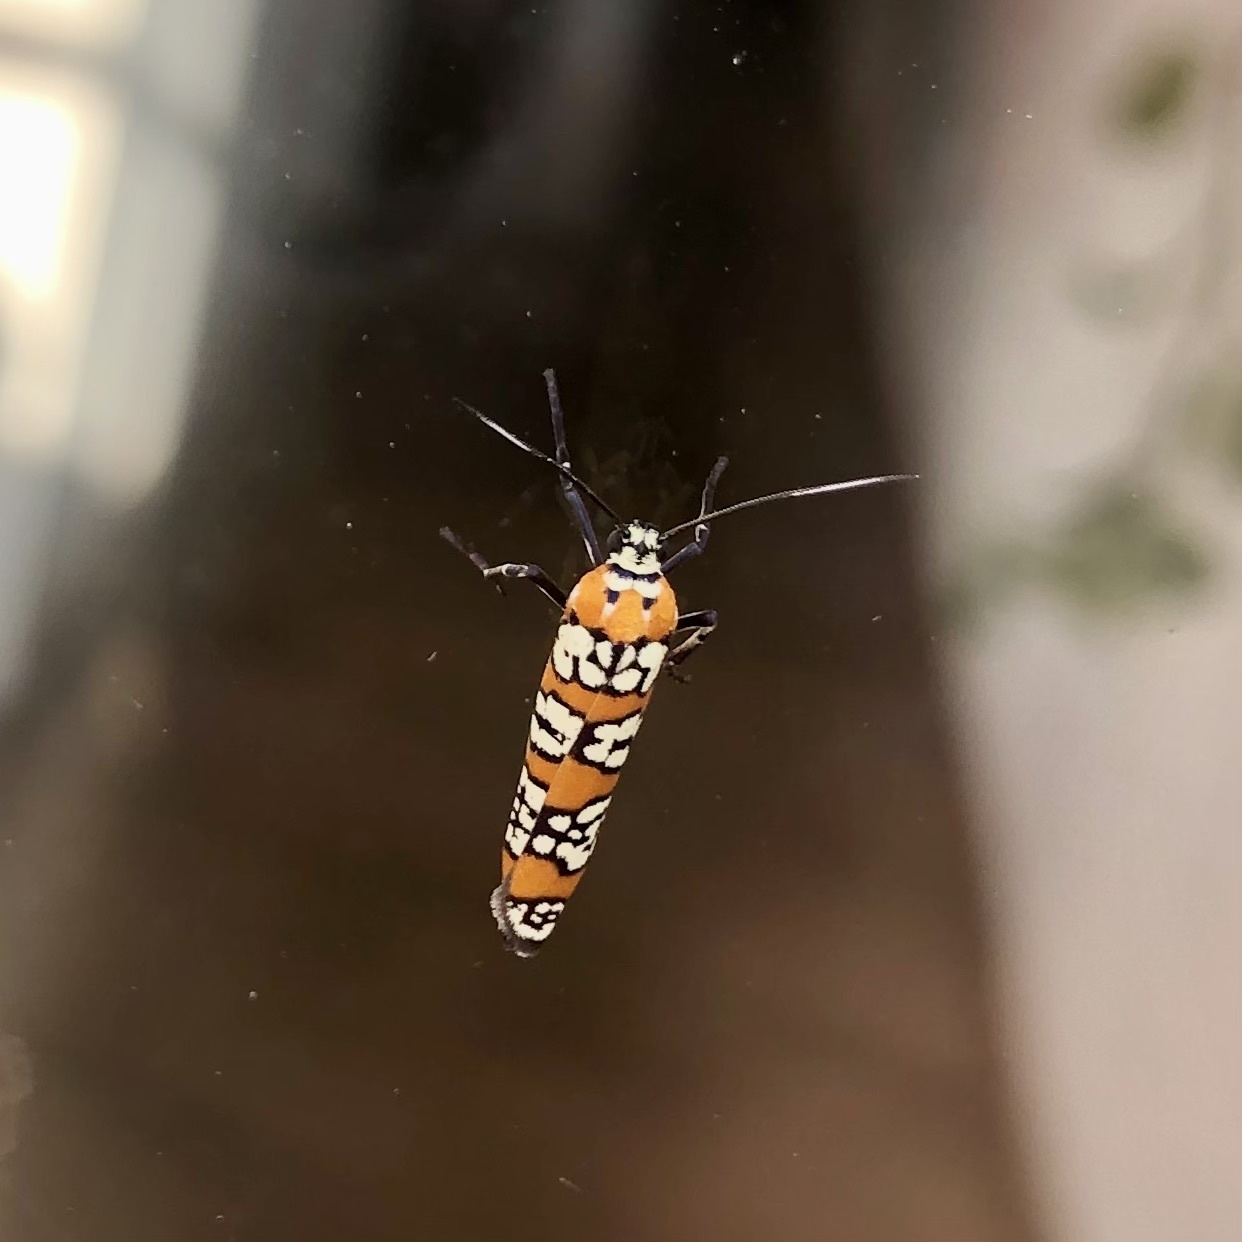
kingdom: Animalia
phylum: Arthropoda
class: Insecta
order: Lepidoptera
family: Attevidae
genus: Atteva
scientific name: Atteva punctella
